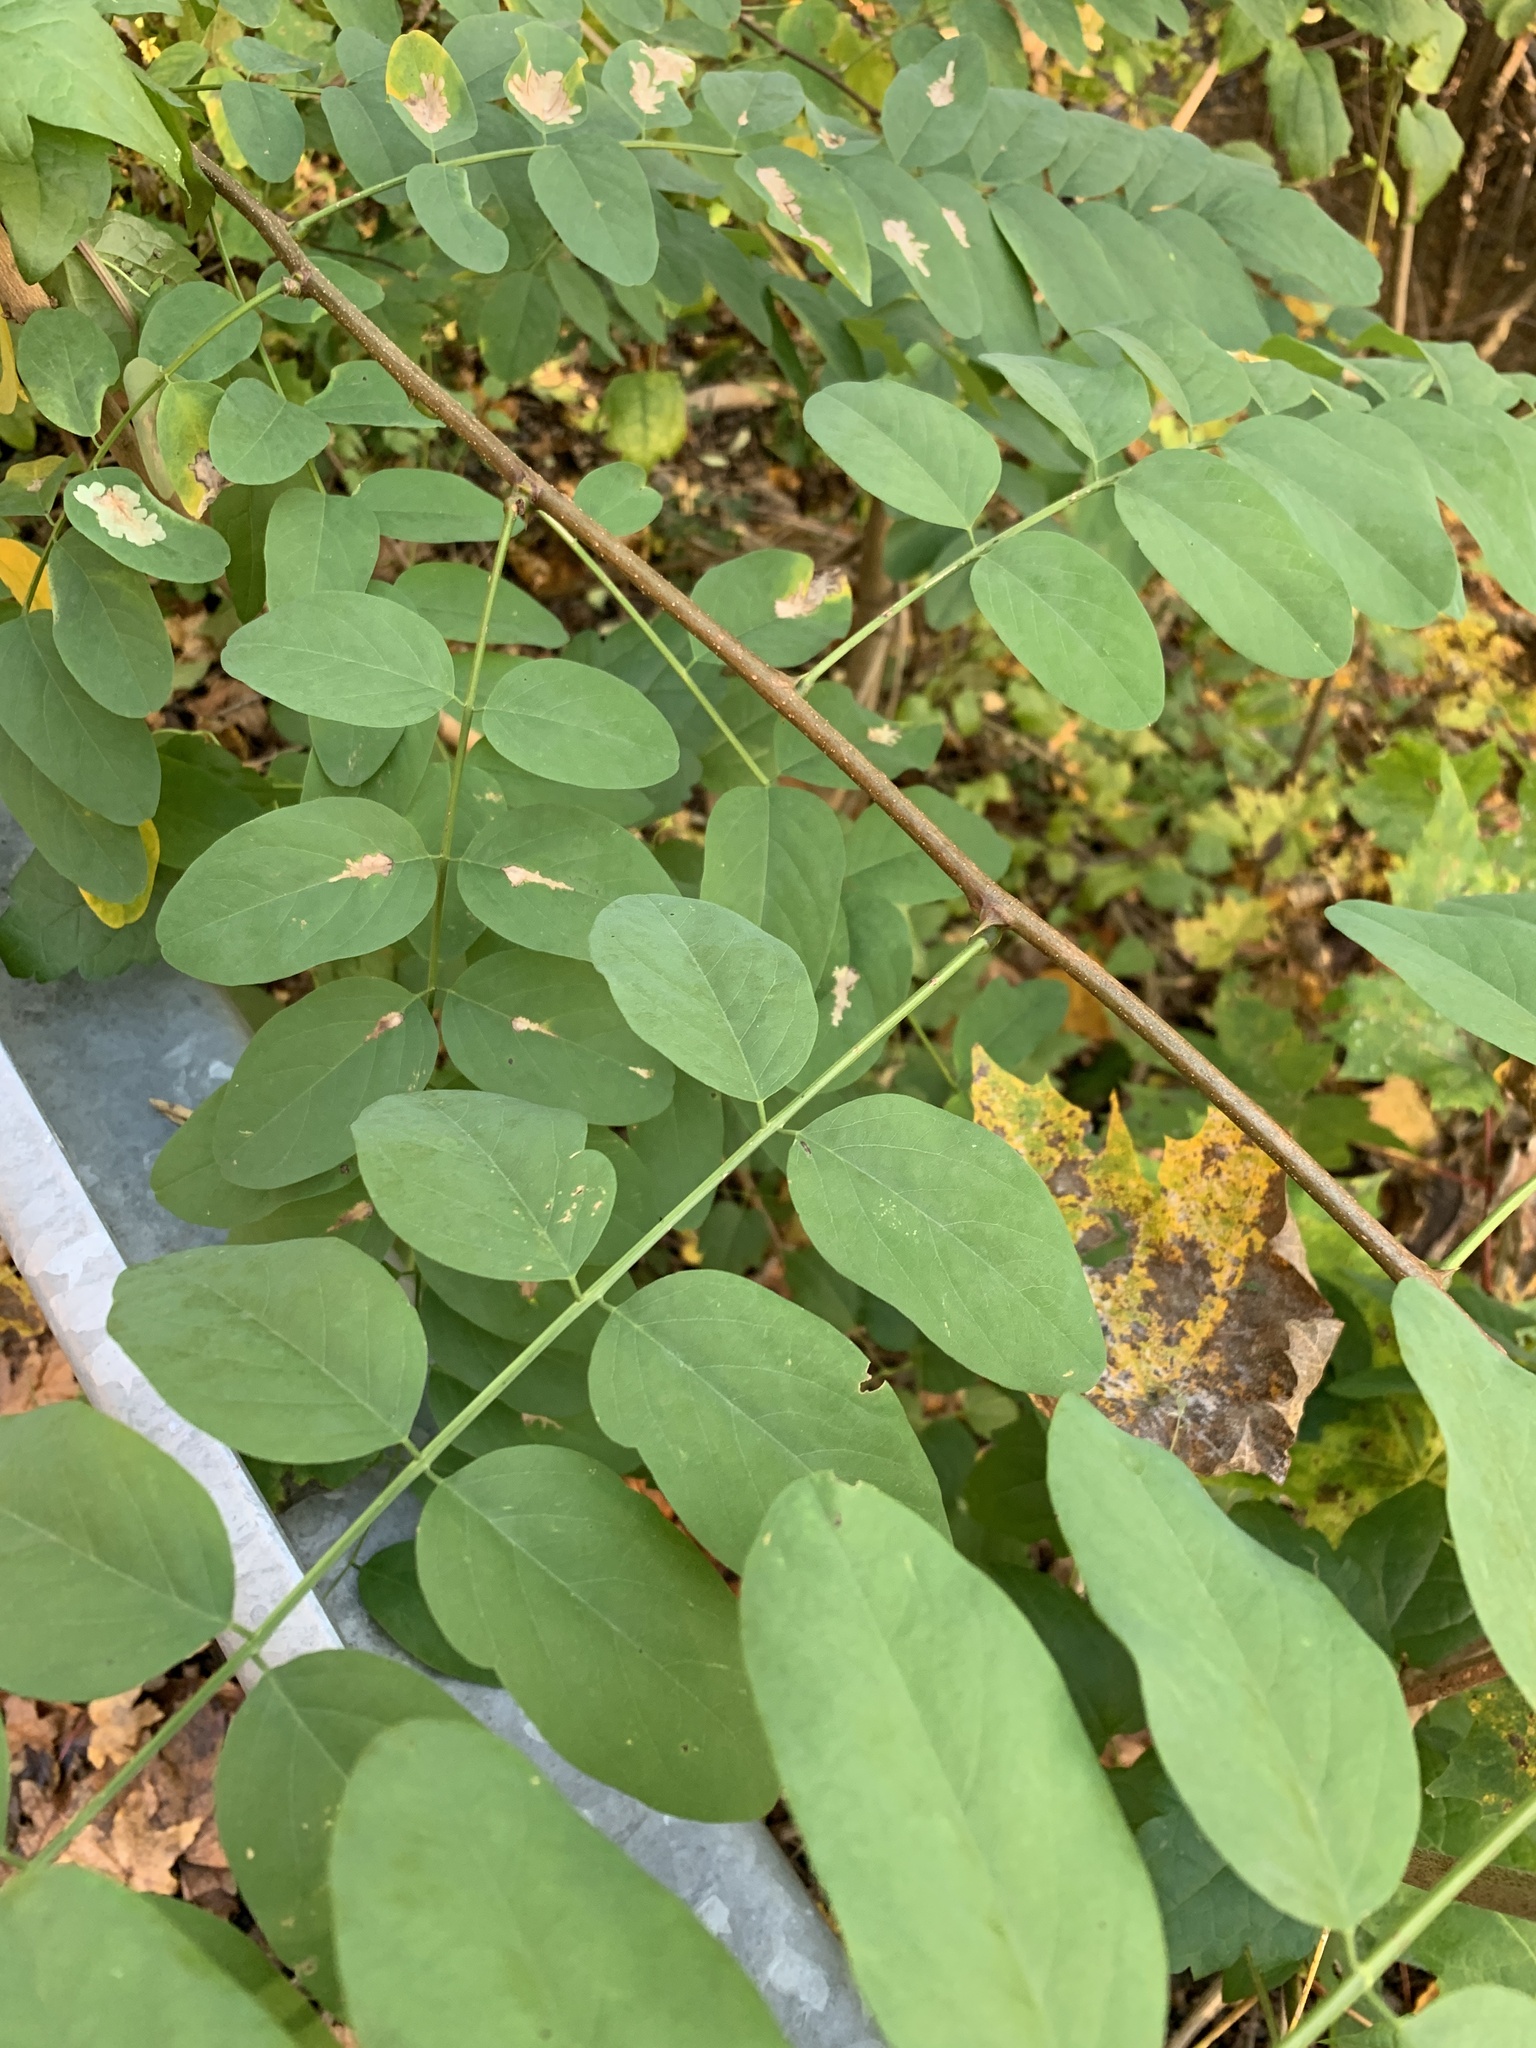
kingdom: Plantae
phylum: Tracheophyta
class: Magnoliopsida
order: Fabales
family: Fabaceae
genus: Robinia
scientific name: Robinia pseudoacacia
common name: Black locust
